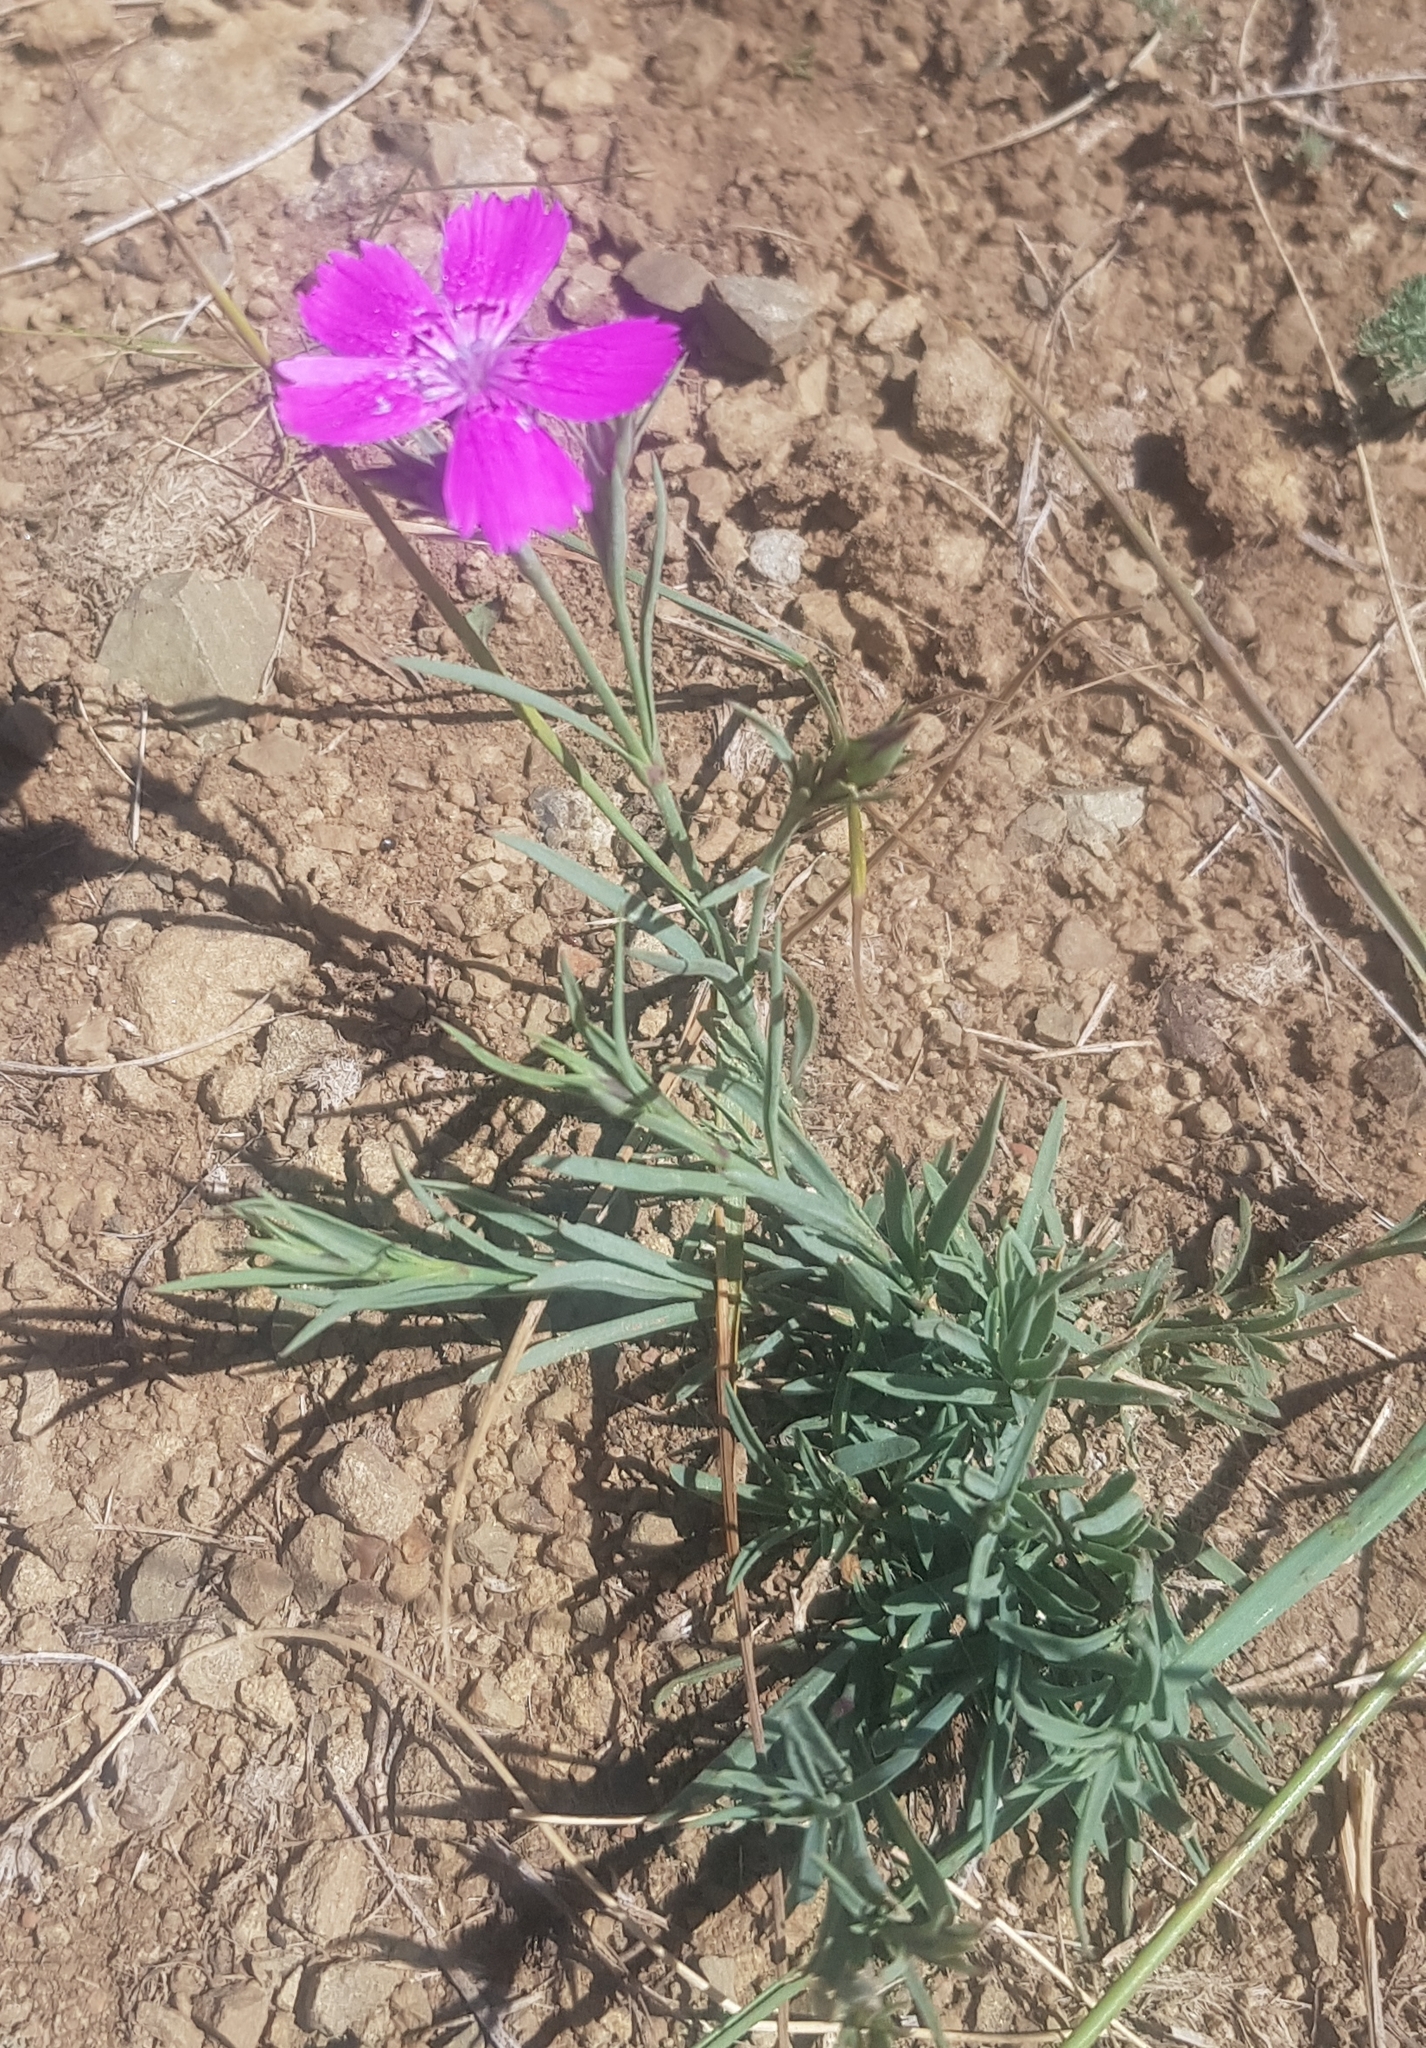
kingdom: Plantae
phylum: Tracheophyta
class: Magnoliopsida
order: Caryophyllales
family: Caryophyllaceae
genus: Dianthus
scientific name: Dianthus chinensis
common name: Rainbow pink
